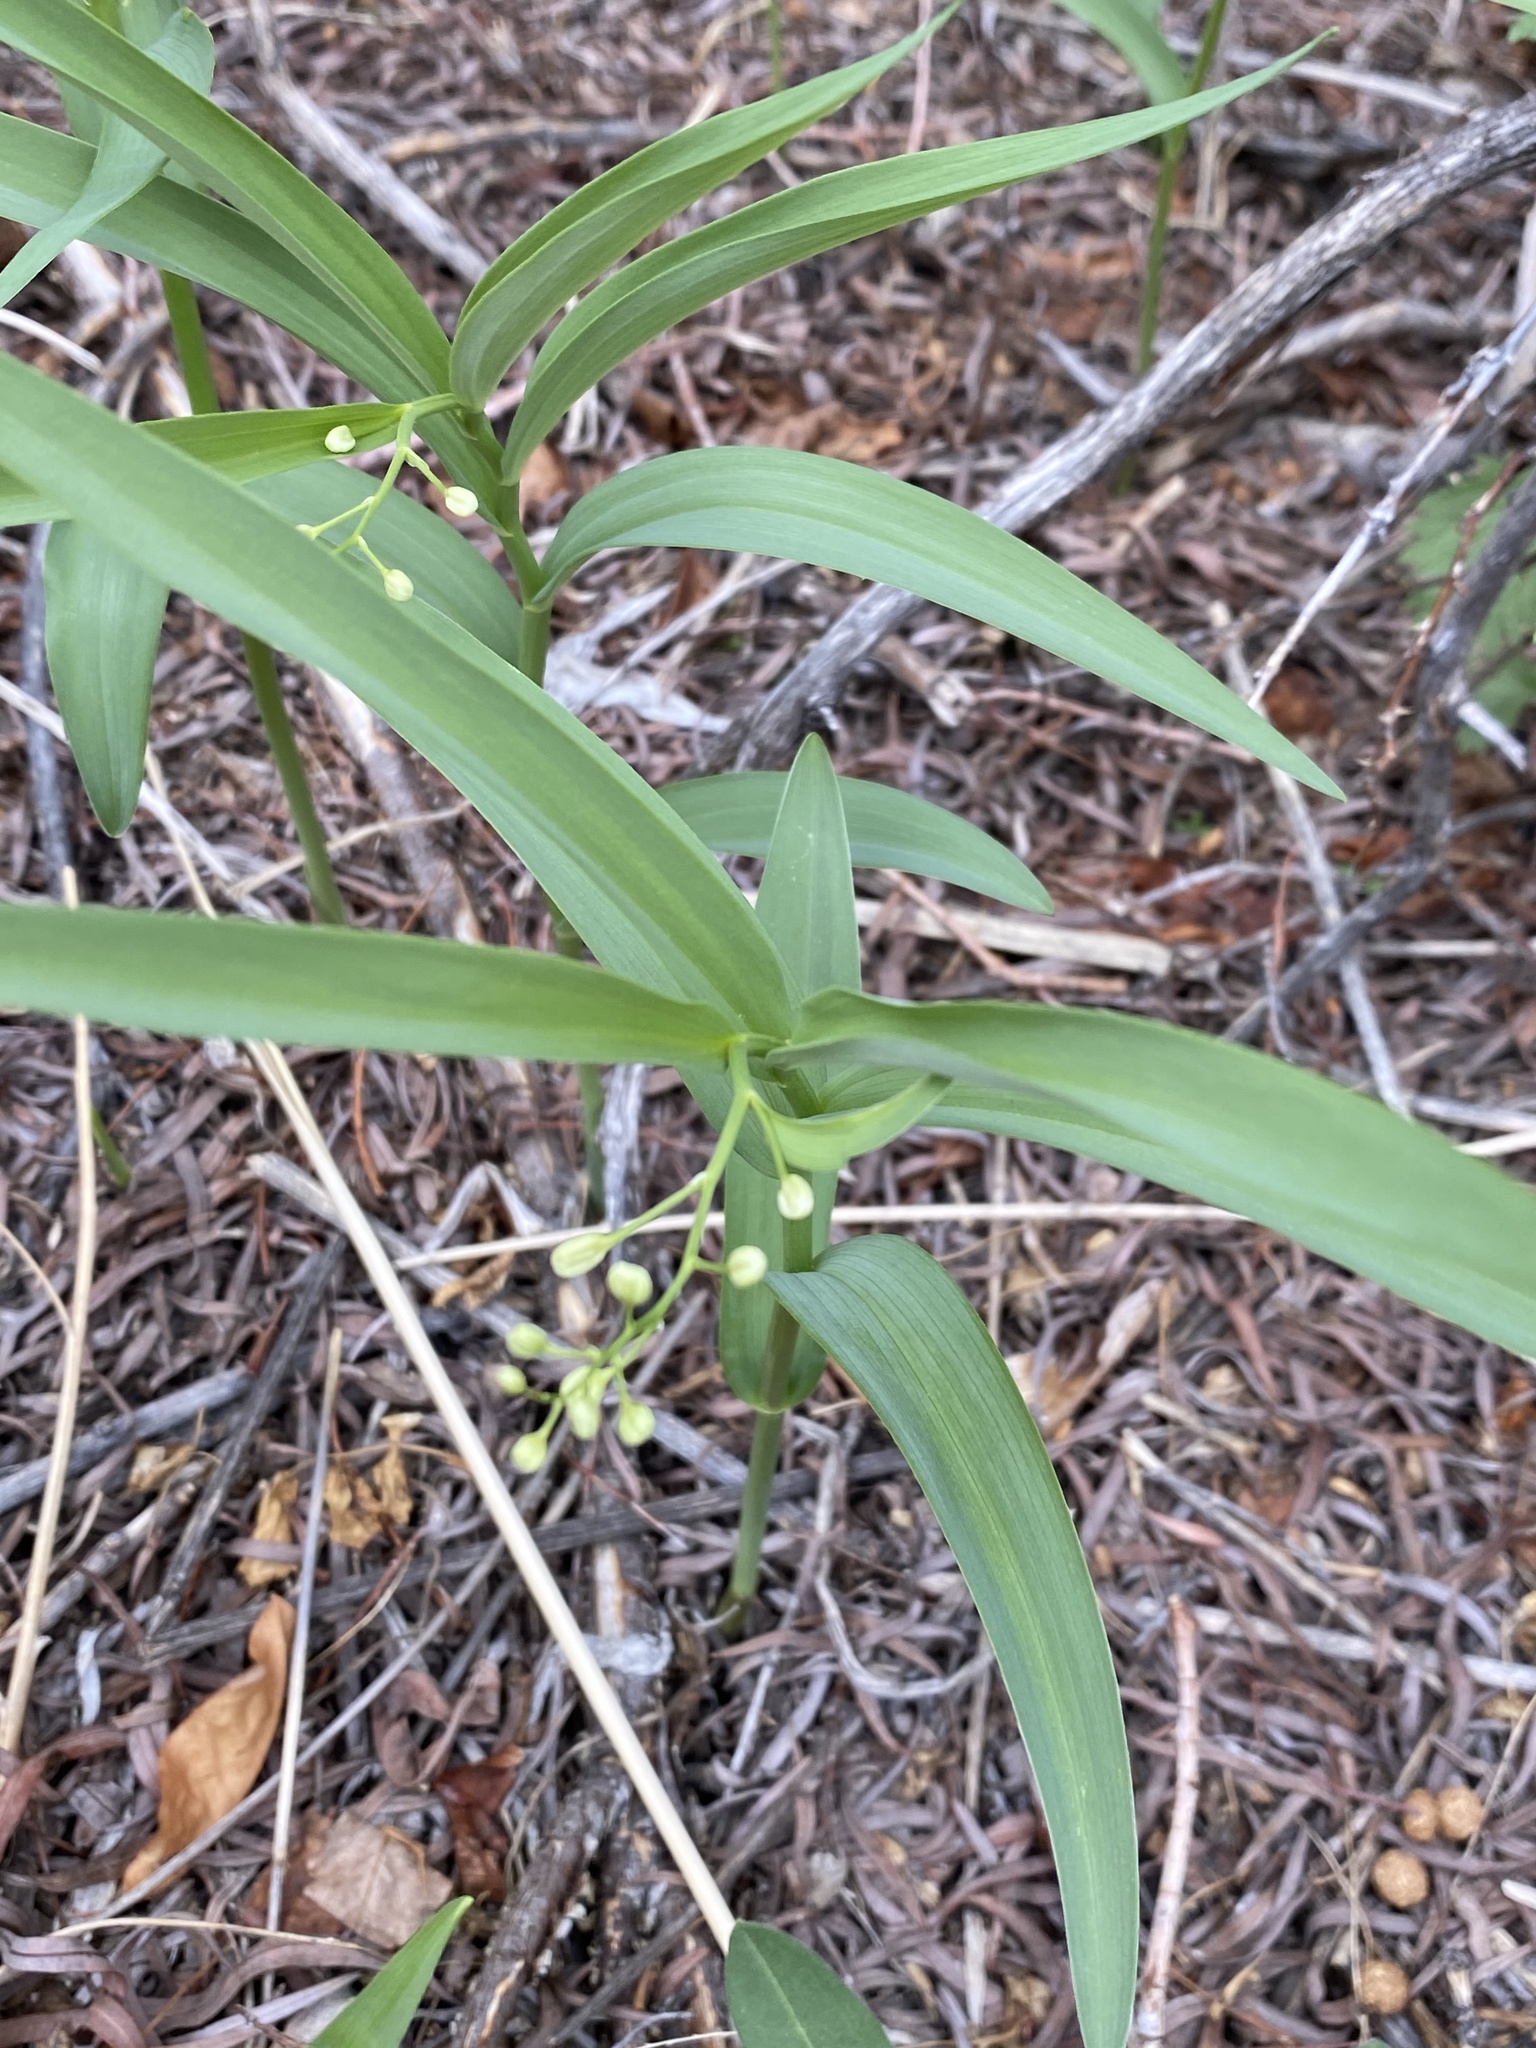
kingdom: Plantae
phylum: Tracheophyta
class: Liliopsida
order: Asparagales
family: Asparagaceae
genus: Maianthemum
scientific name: Maianthemum stellatum
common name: Little false solomon's seal
